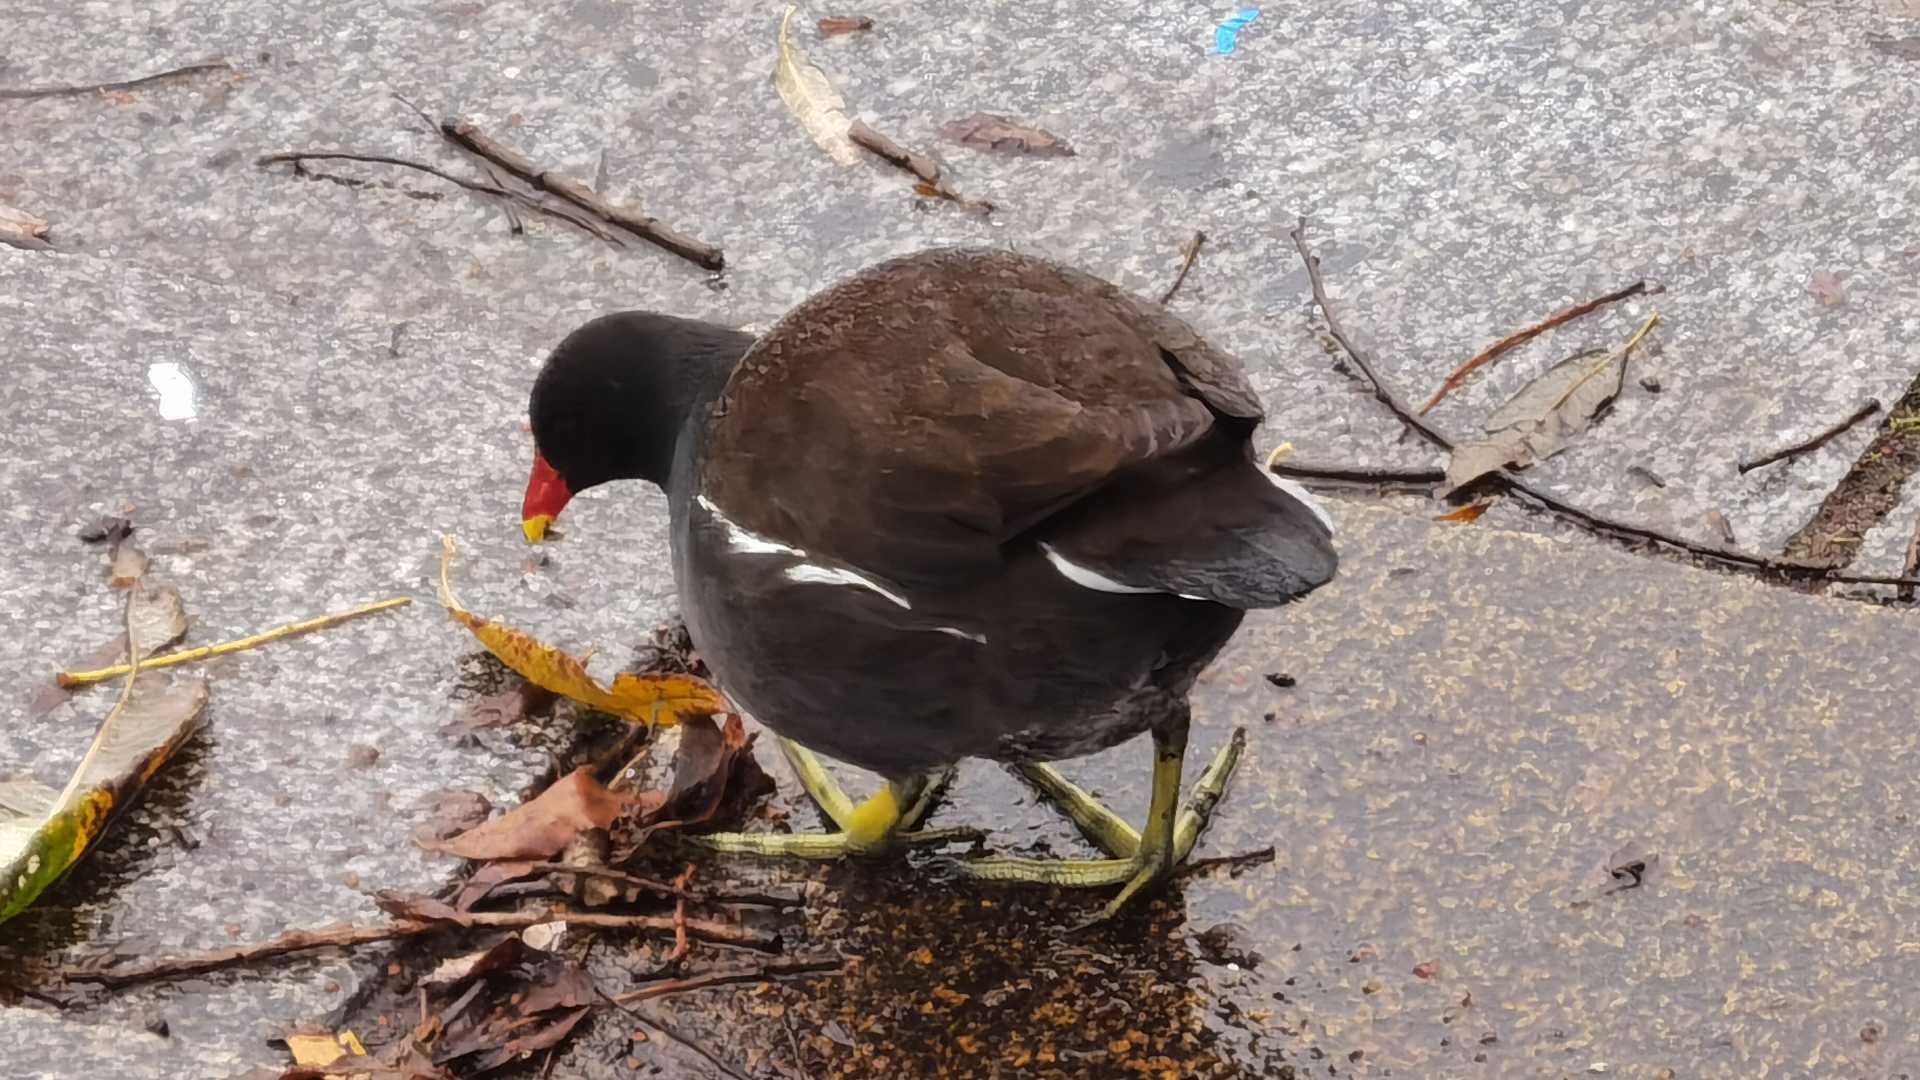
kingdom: Animalia
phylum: Chordata
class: Aves
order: Gruiformes
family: Rallidae
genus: Gallinula
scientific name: Gallinula chloropus
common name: Common moorhen
